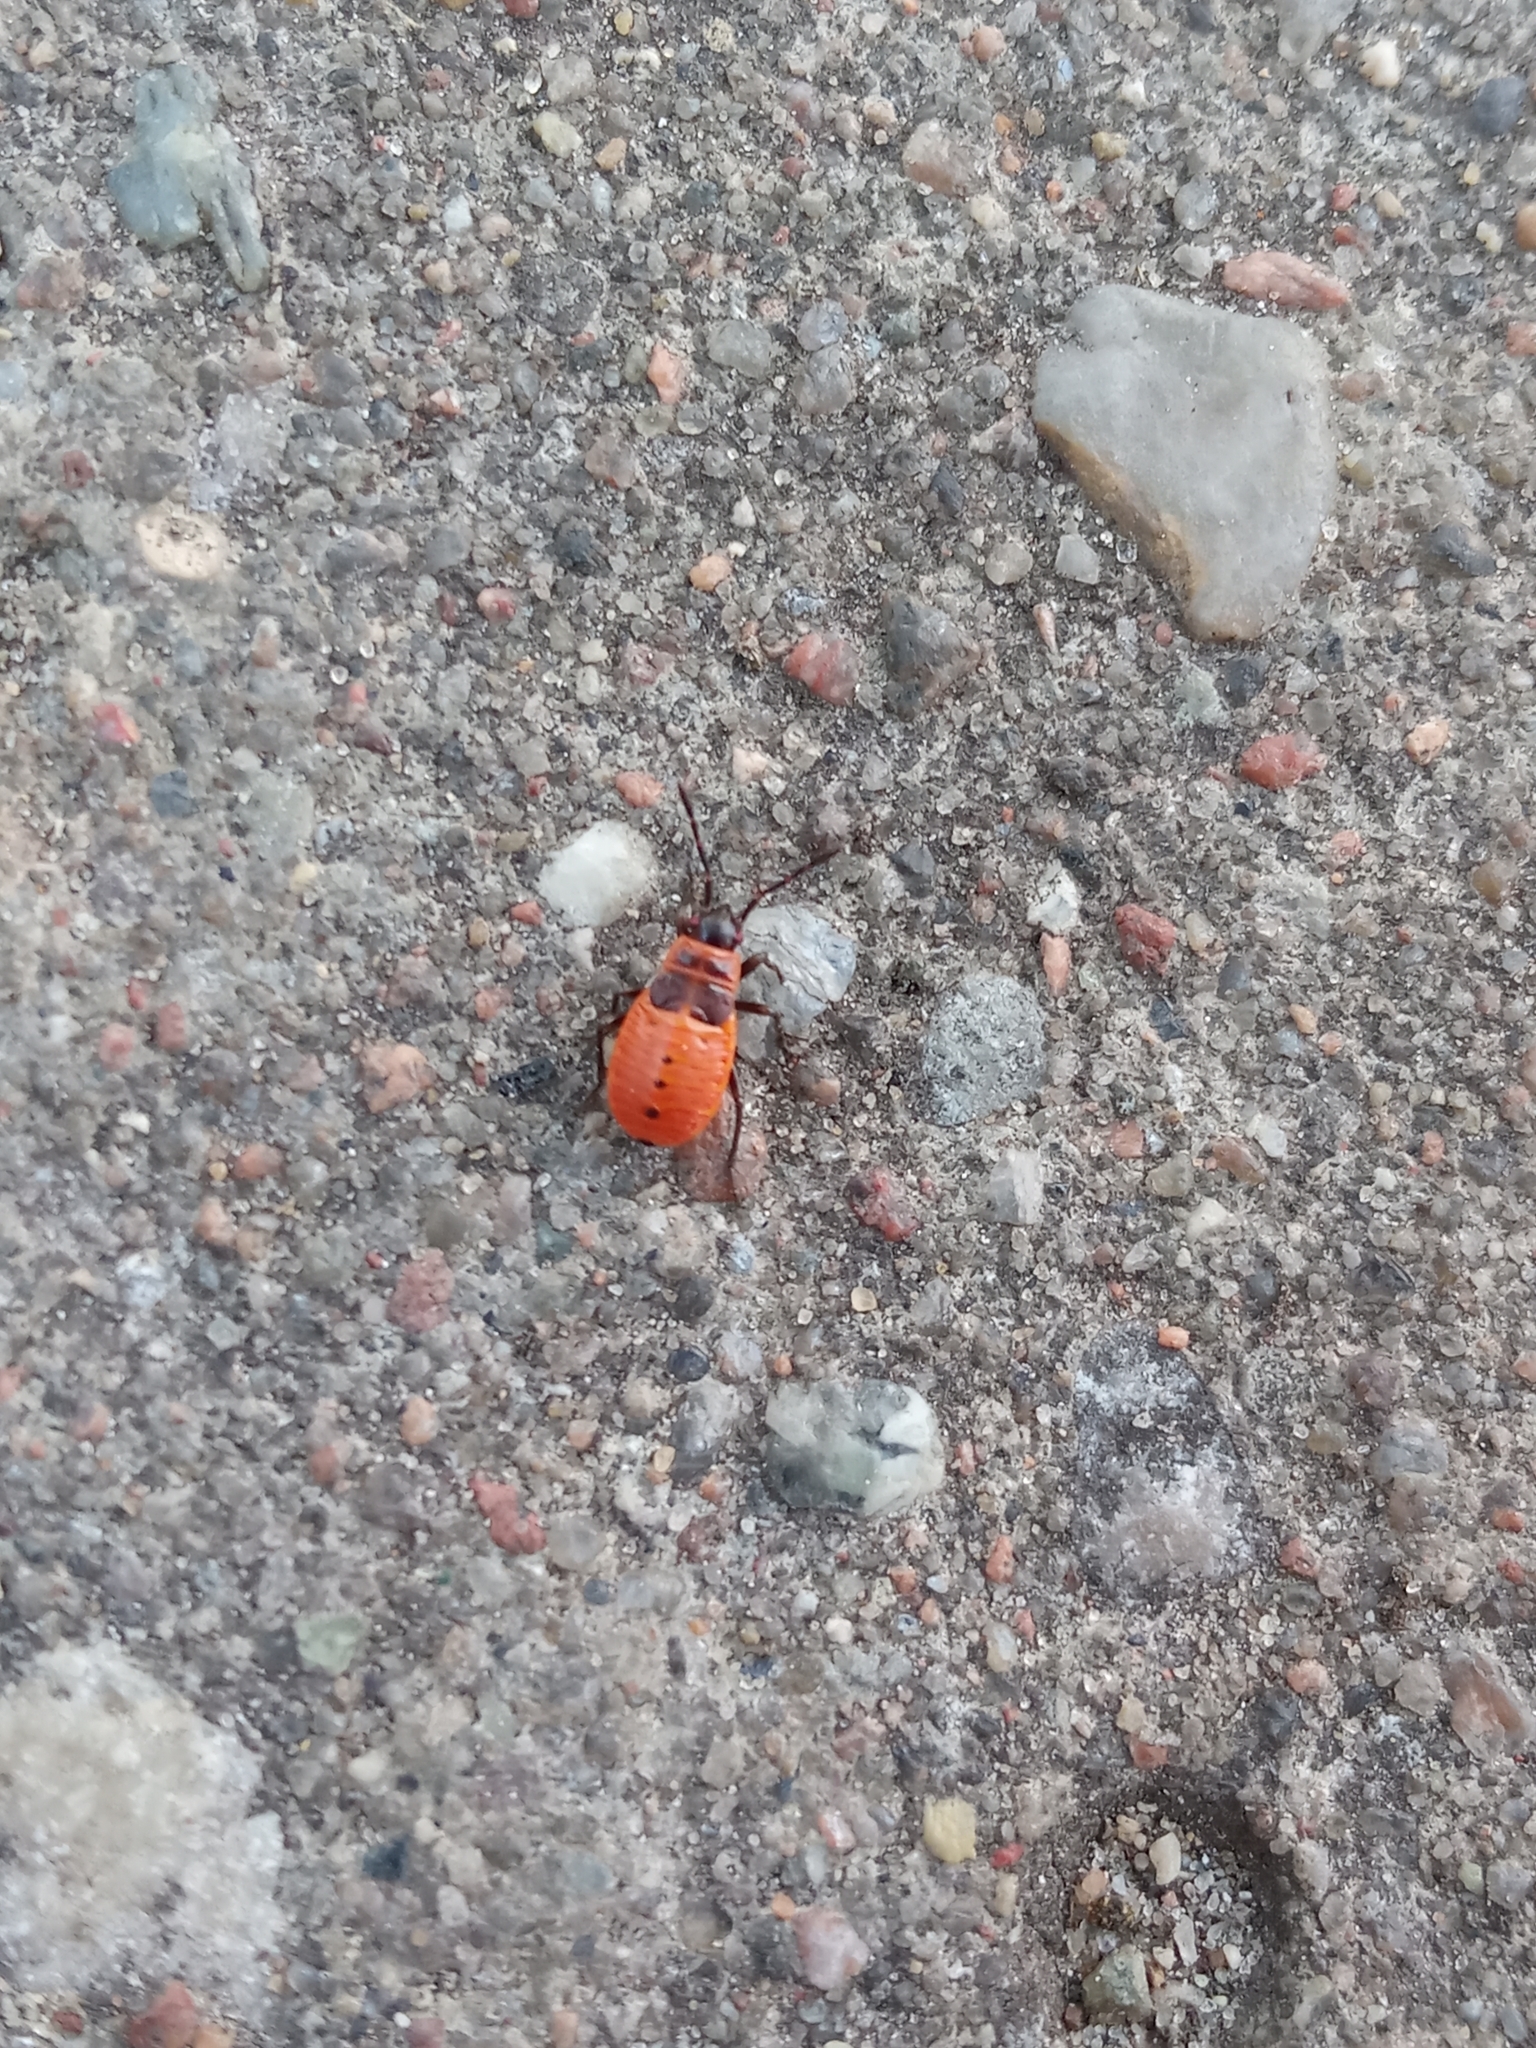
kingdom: Animalia
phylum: Arthropoda
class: Insecta
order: Hemiptera
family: Pyrrhocoridae
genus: Pyrrhocoris
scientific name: Pyrrhocoris apterus
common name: Firebug
